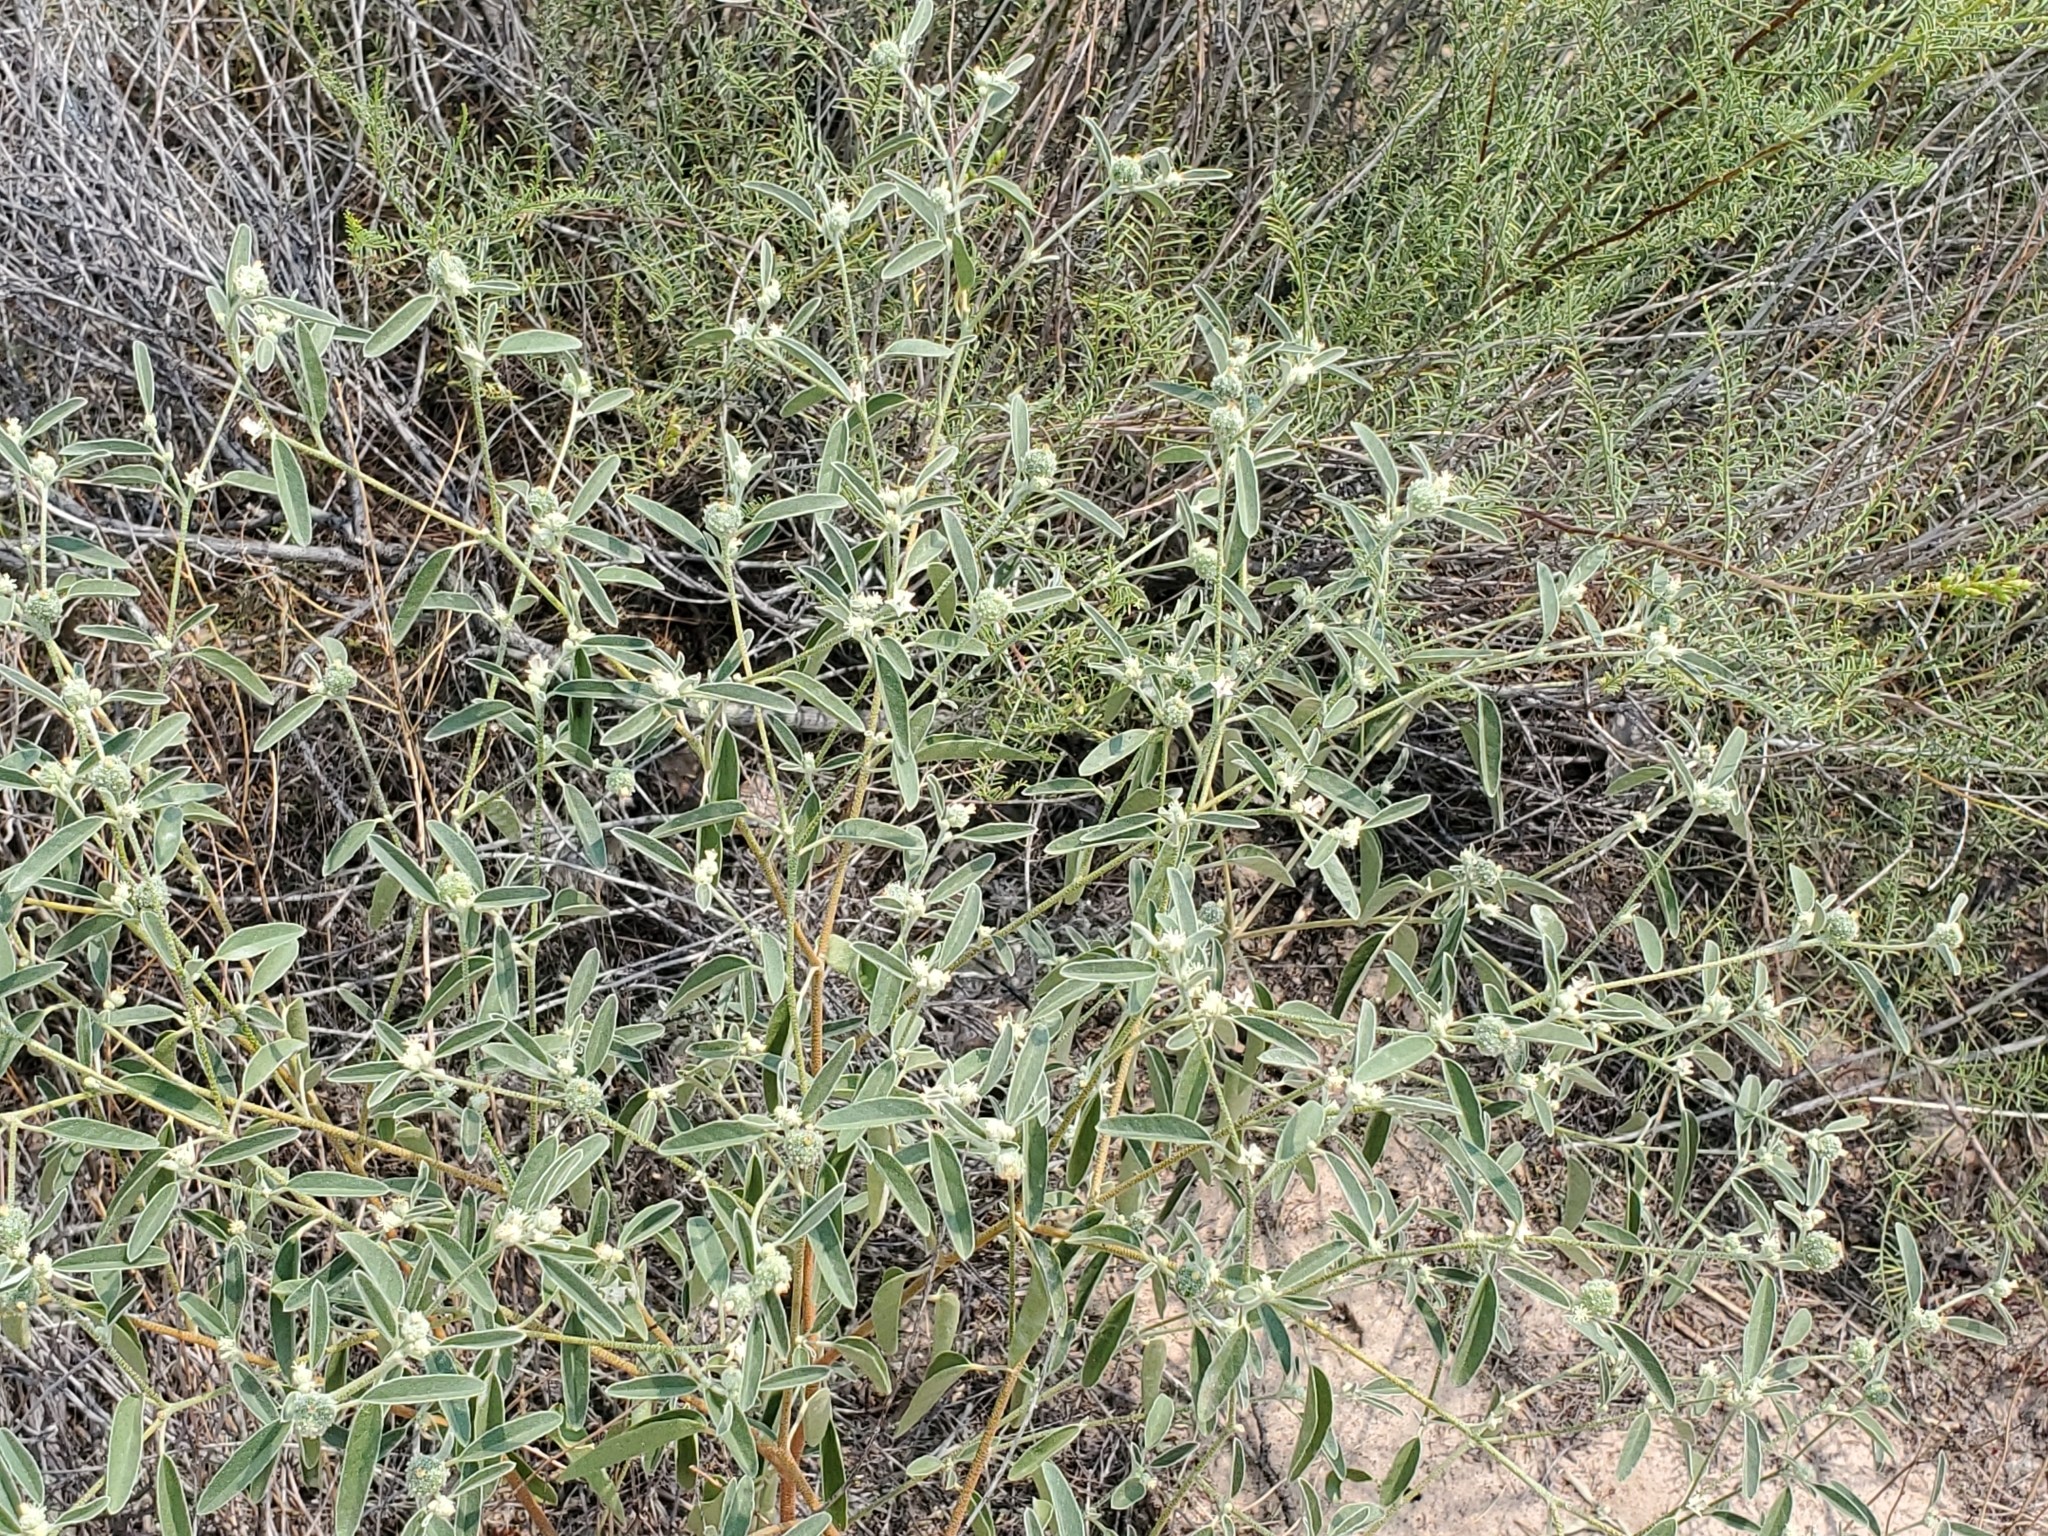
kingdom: Plantae
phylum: Tracheophyta
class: Magnoliopsida
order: Malpighiales
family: Euphorbiaceae
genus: Croton
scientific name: Croton texensis
